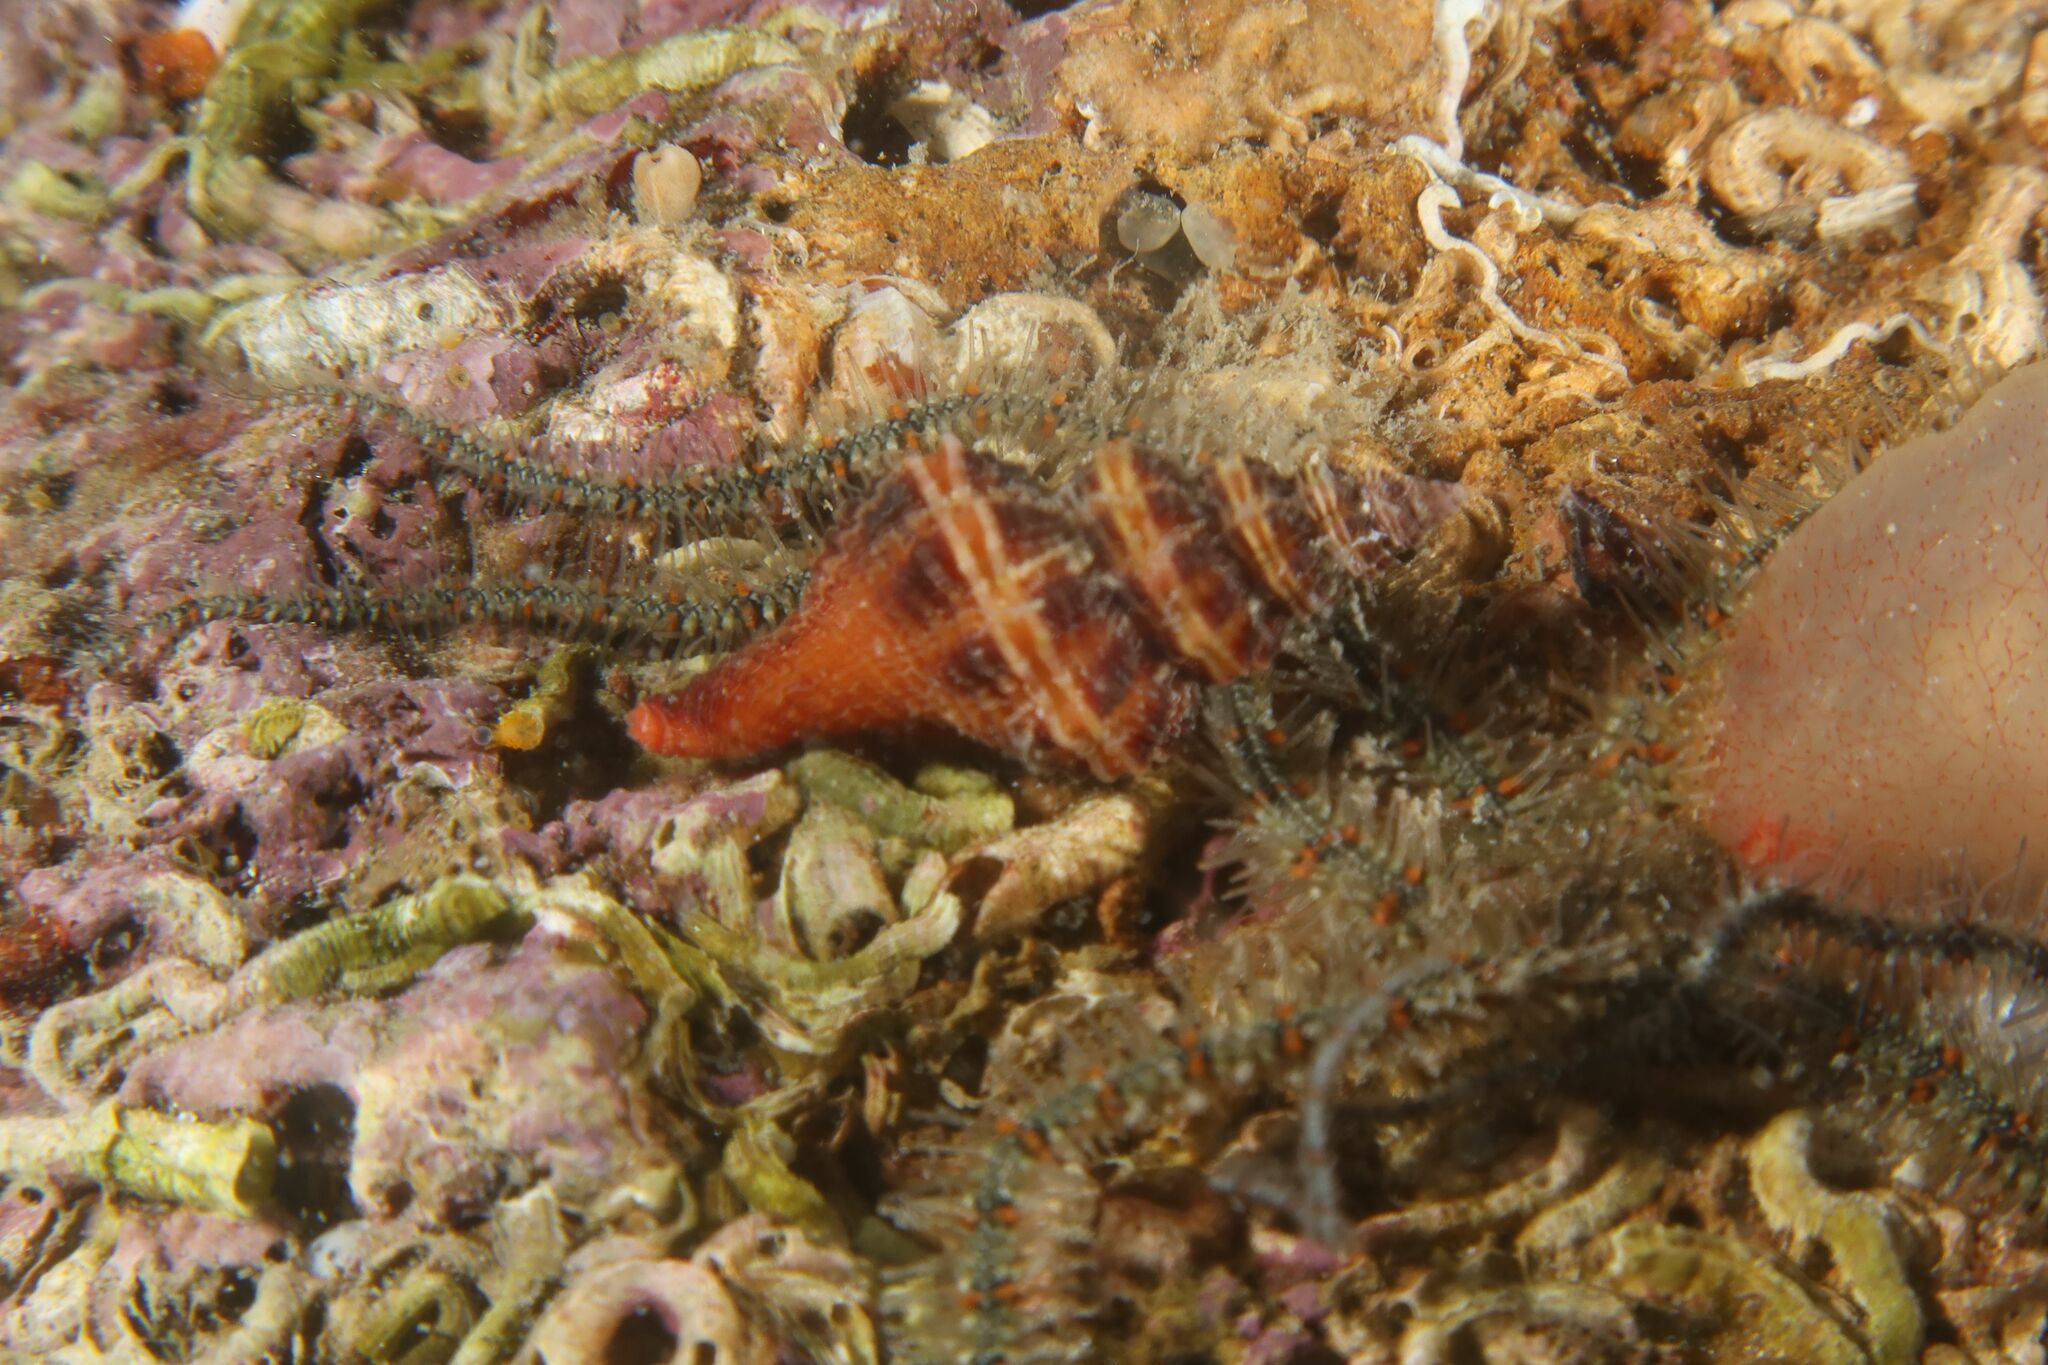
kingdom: Animalia
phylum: Mollusca
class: Gastropoda
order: Neogastropoda
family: Fasciolariidae
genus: Pseudofusus
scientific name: Pseudofusus pulchellus
